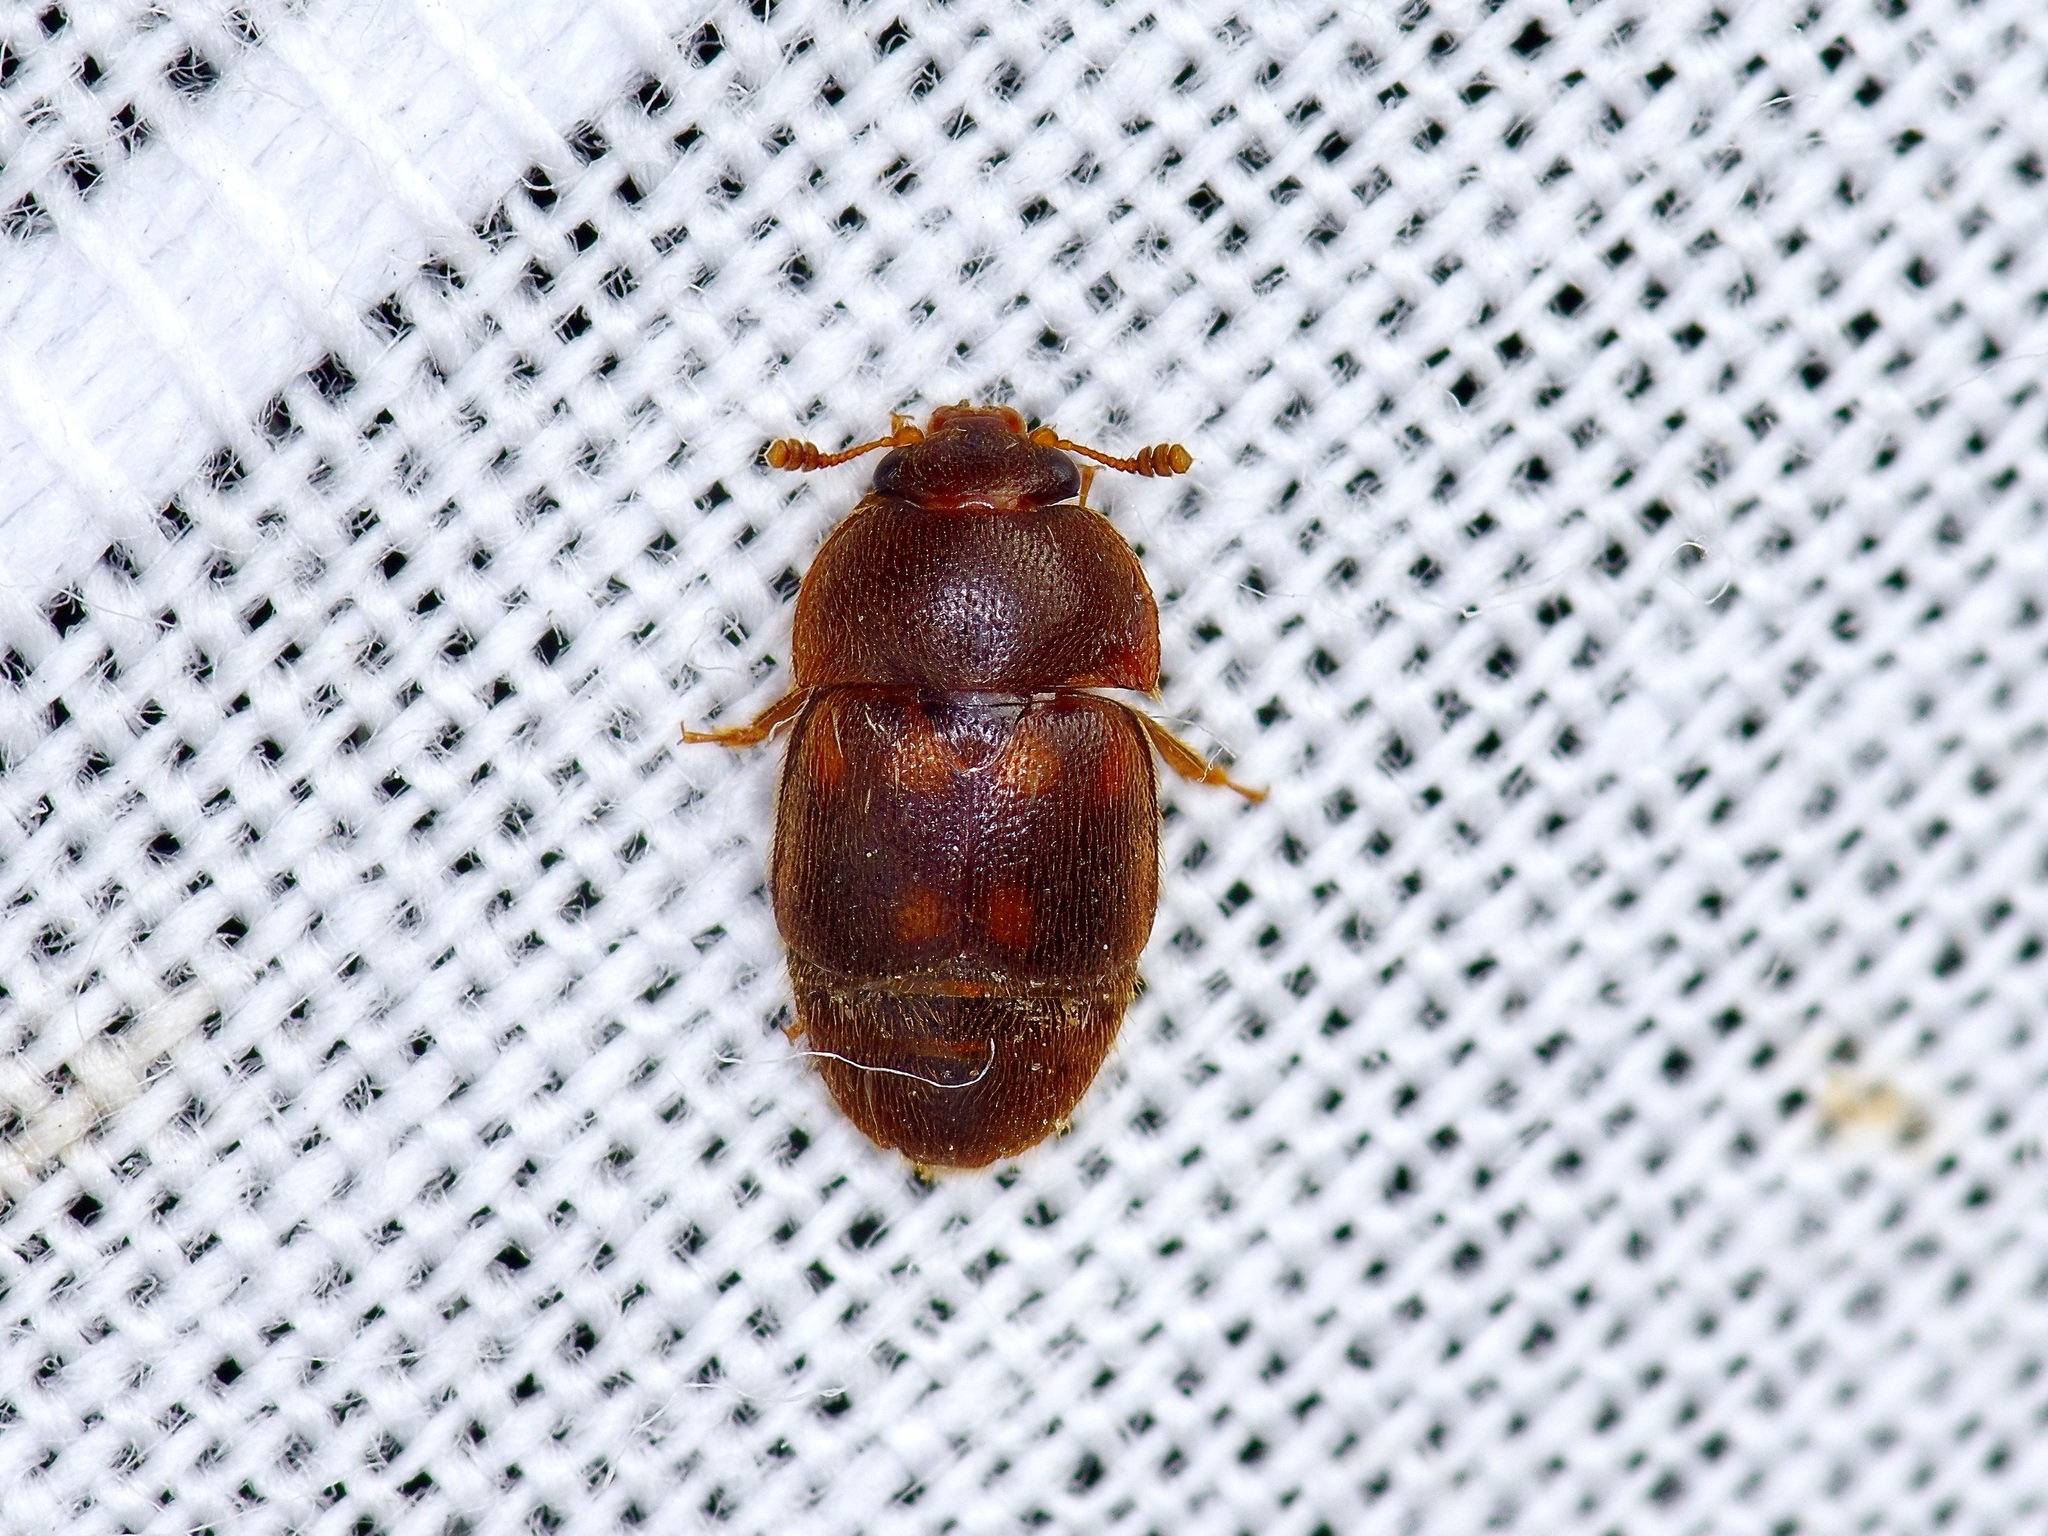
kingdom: Animalia
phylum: Arthropoda
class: Insecta
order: Coleoptera
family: Nitidulidae
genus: Colopterus
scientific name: Colopterus maculatus
